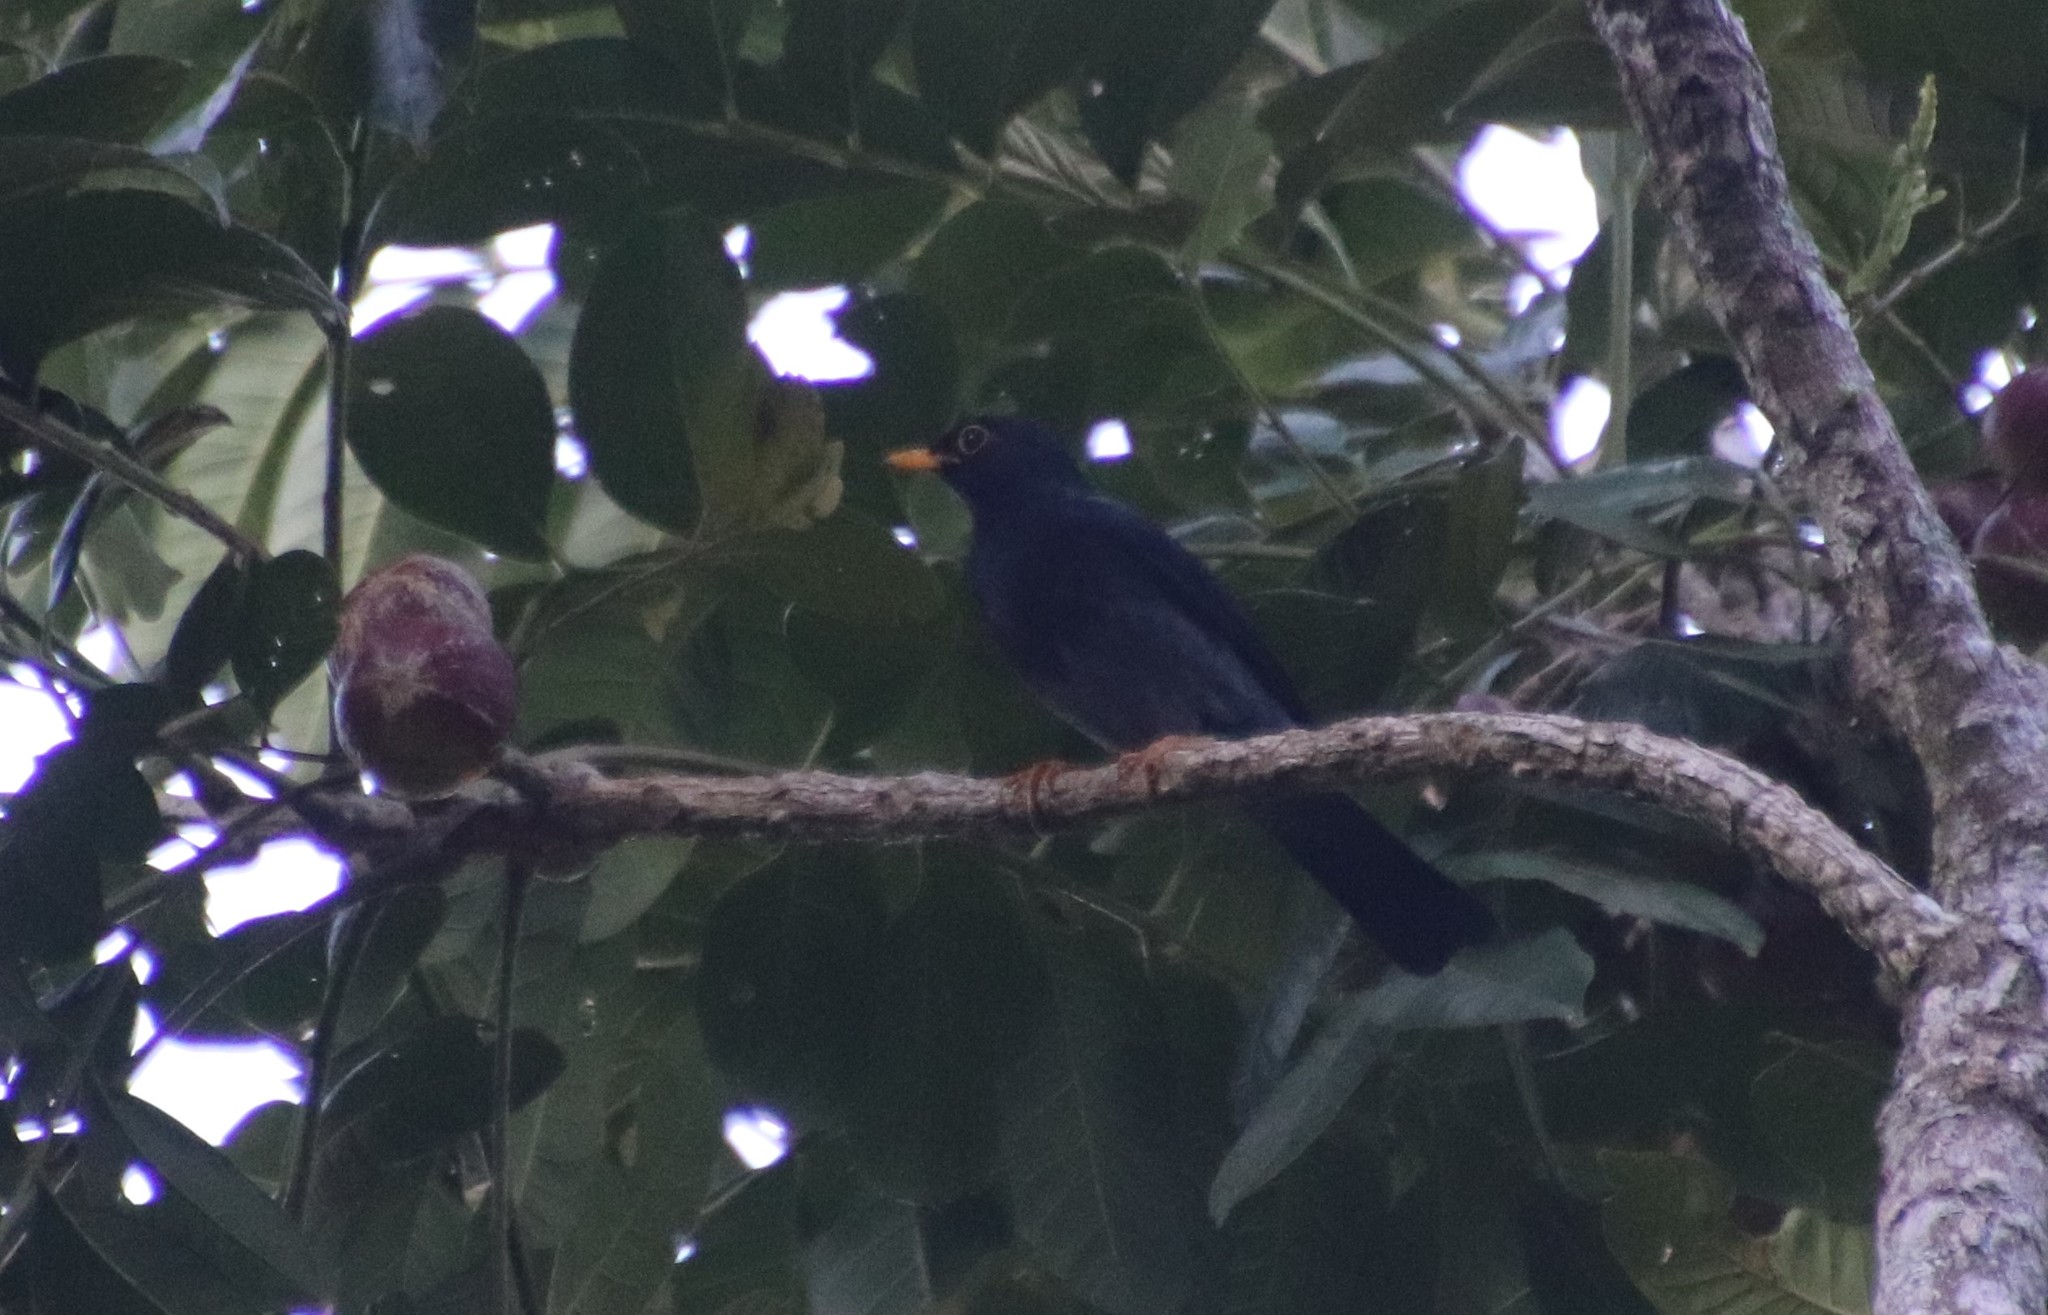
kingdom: Animalia
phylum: Chordata
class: Aves
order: Passeriformes
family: Turdidae
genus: Turdus
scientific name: Turdus flavipes
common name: Yellow-legged thrush
